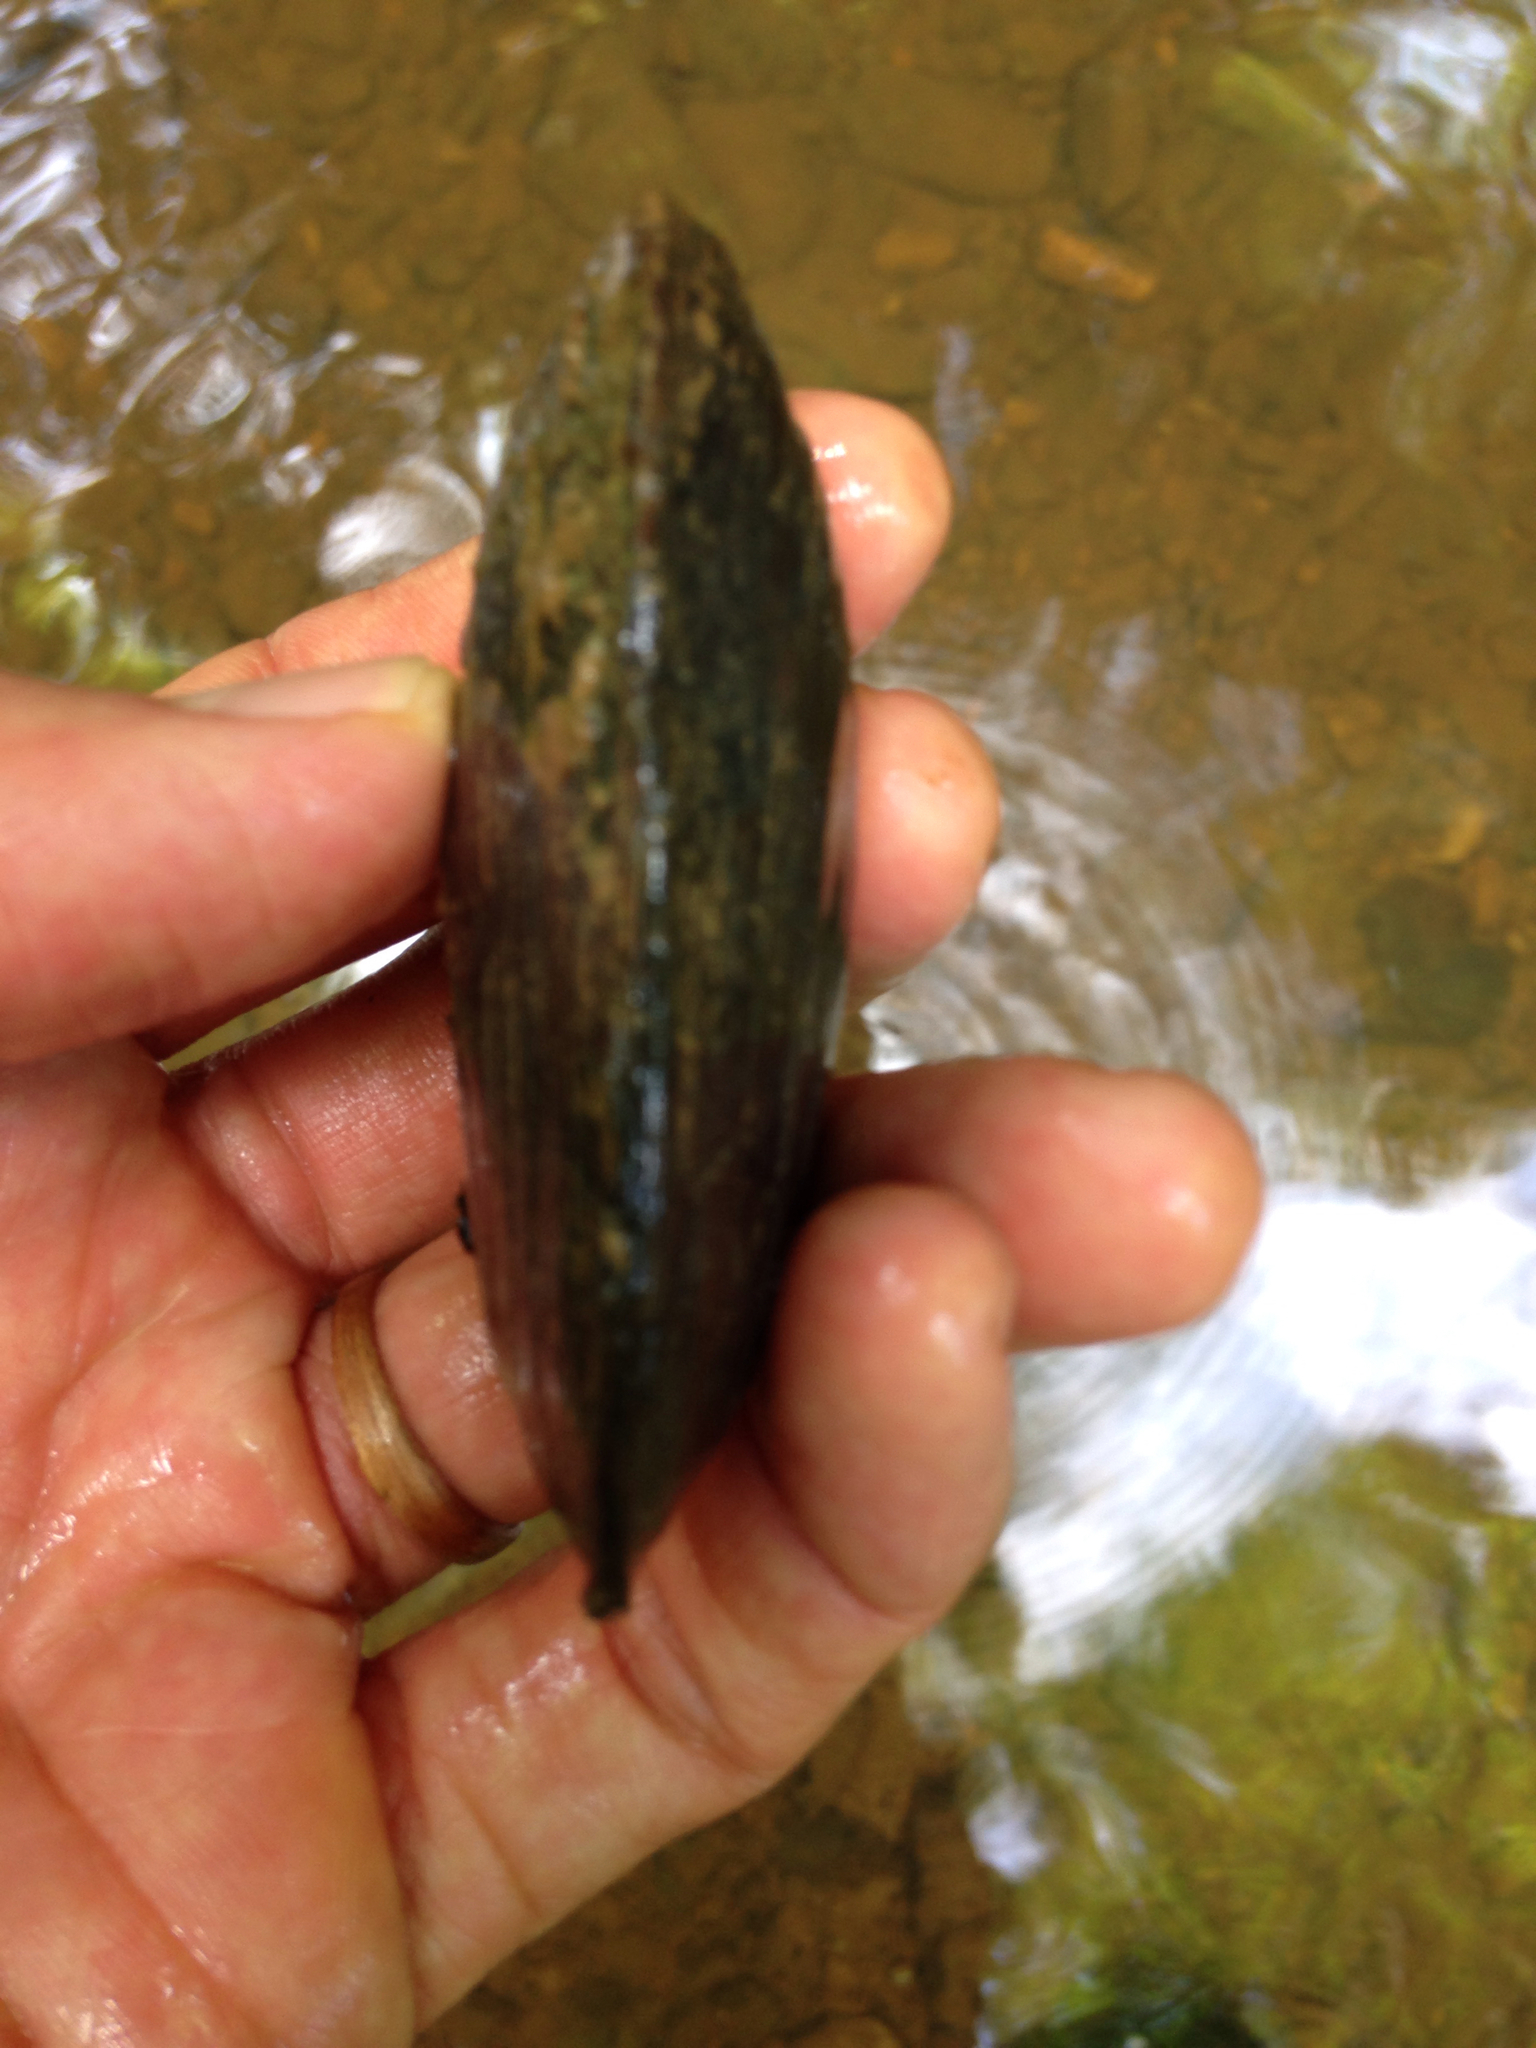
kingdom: Animalia
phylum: Mollusca
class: Bivalvia
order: Unionida
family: Unionidae
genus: Uniomerus
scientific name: Uniomerus carolinianus
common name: Eastern pondhorn
